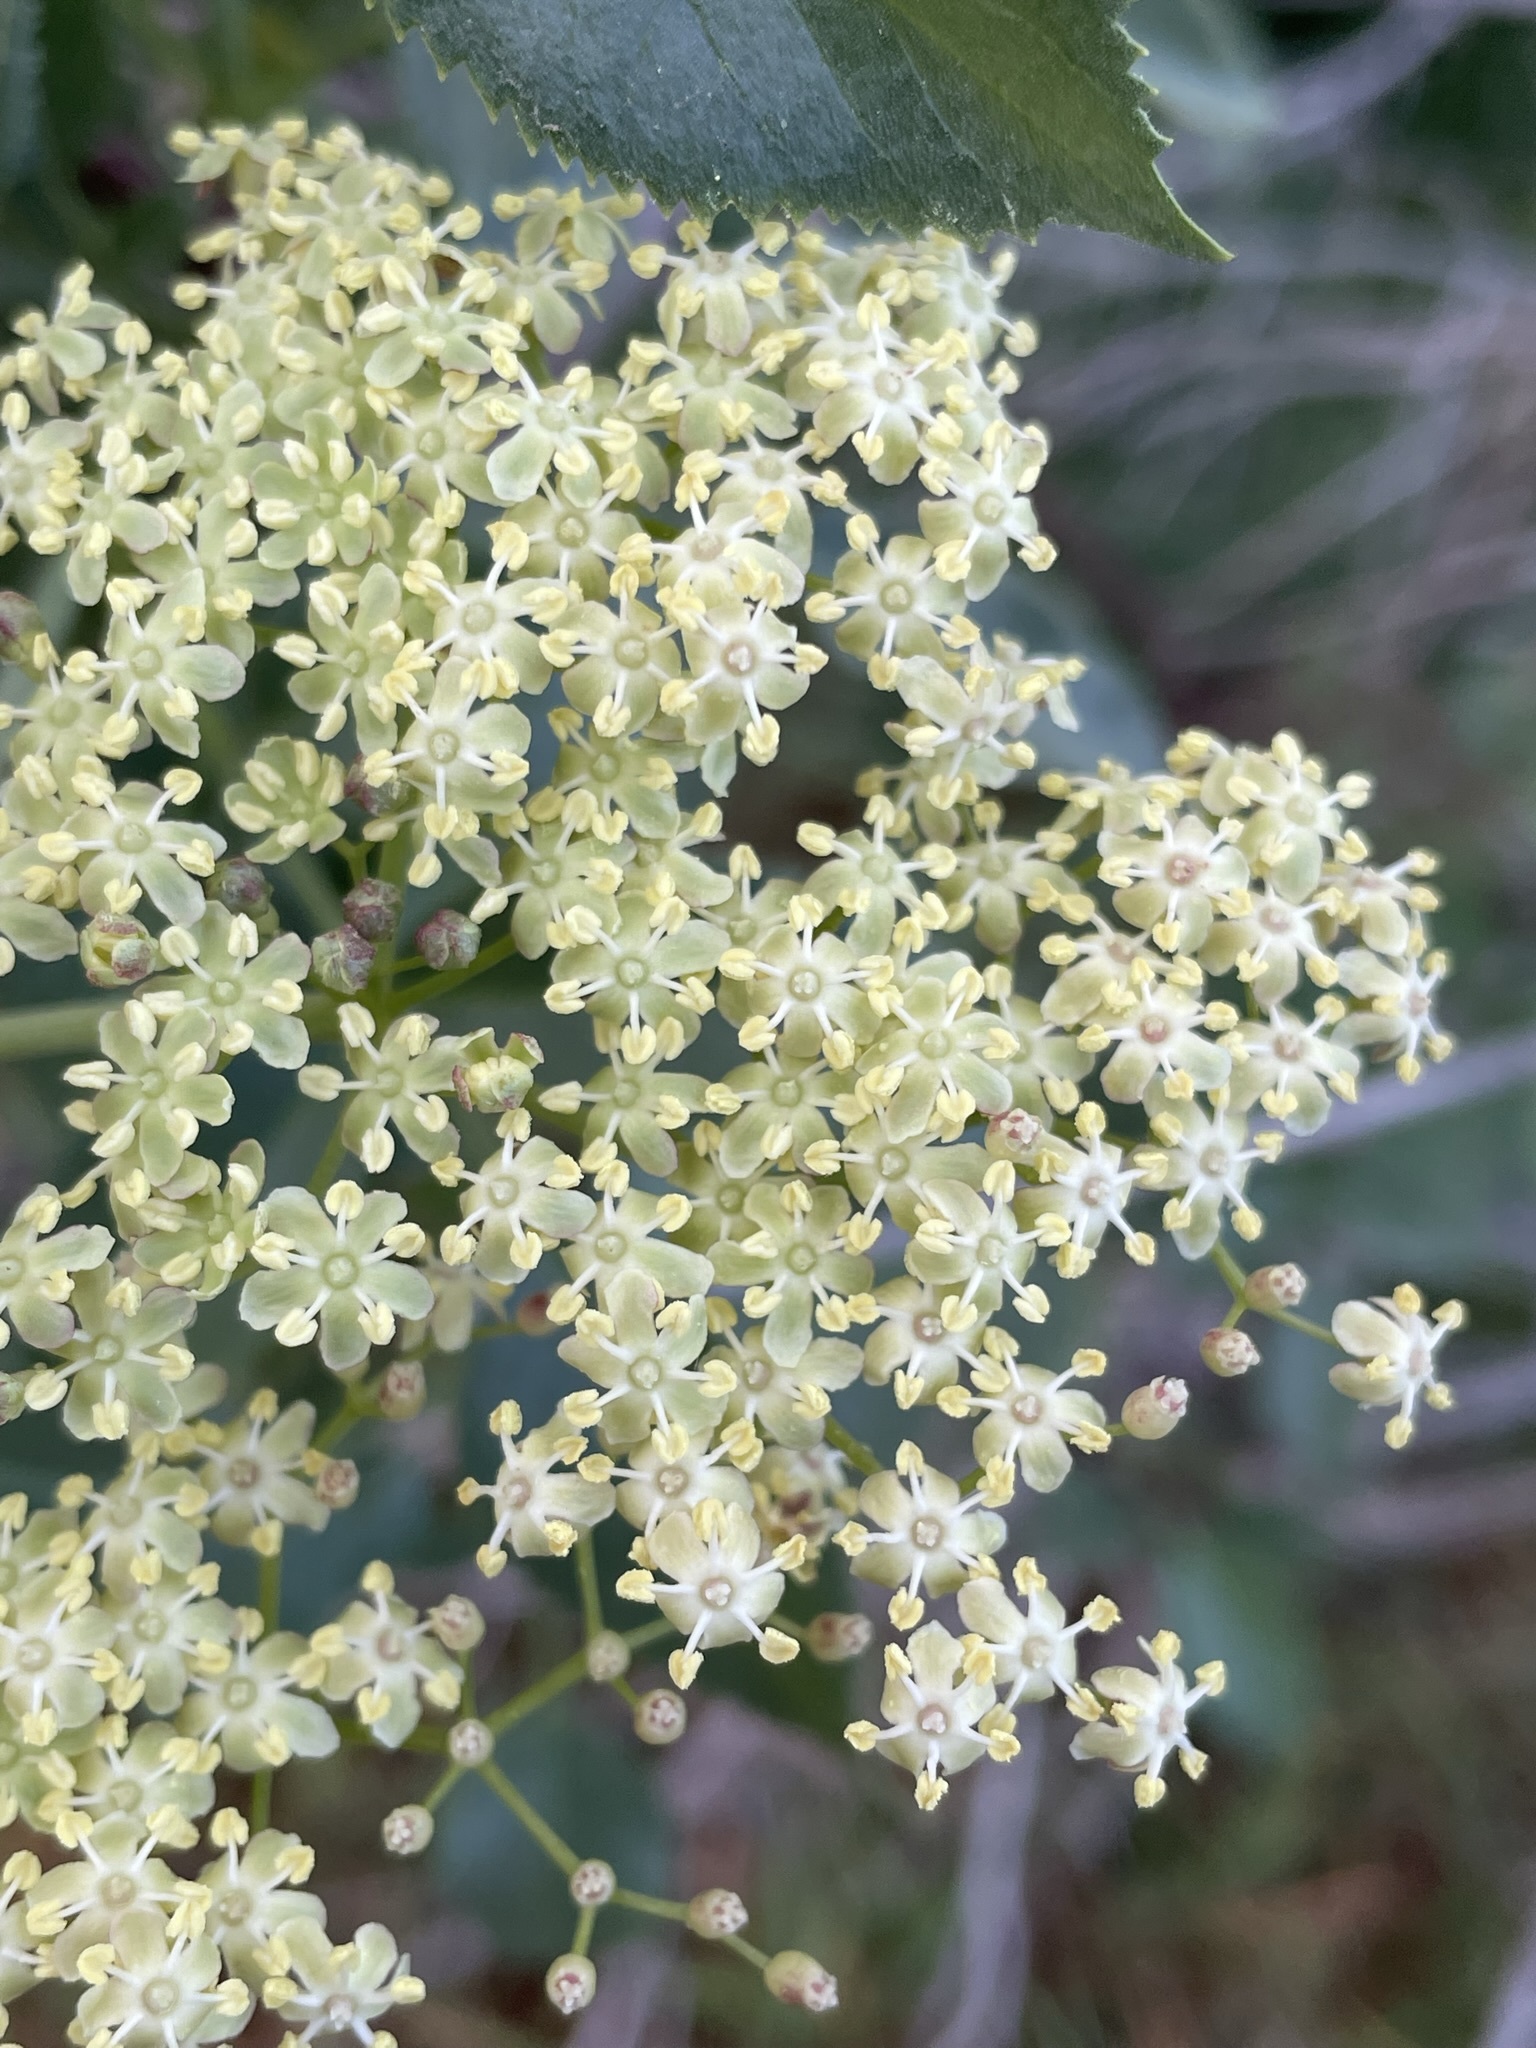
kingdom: Plantae
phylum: Tracheophyta
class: Magnoliopsida
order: Dipsacales
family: Viburnaceae
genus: Sambucus
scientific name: Sambucus cerulea
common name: Blue elder
